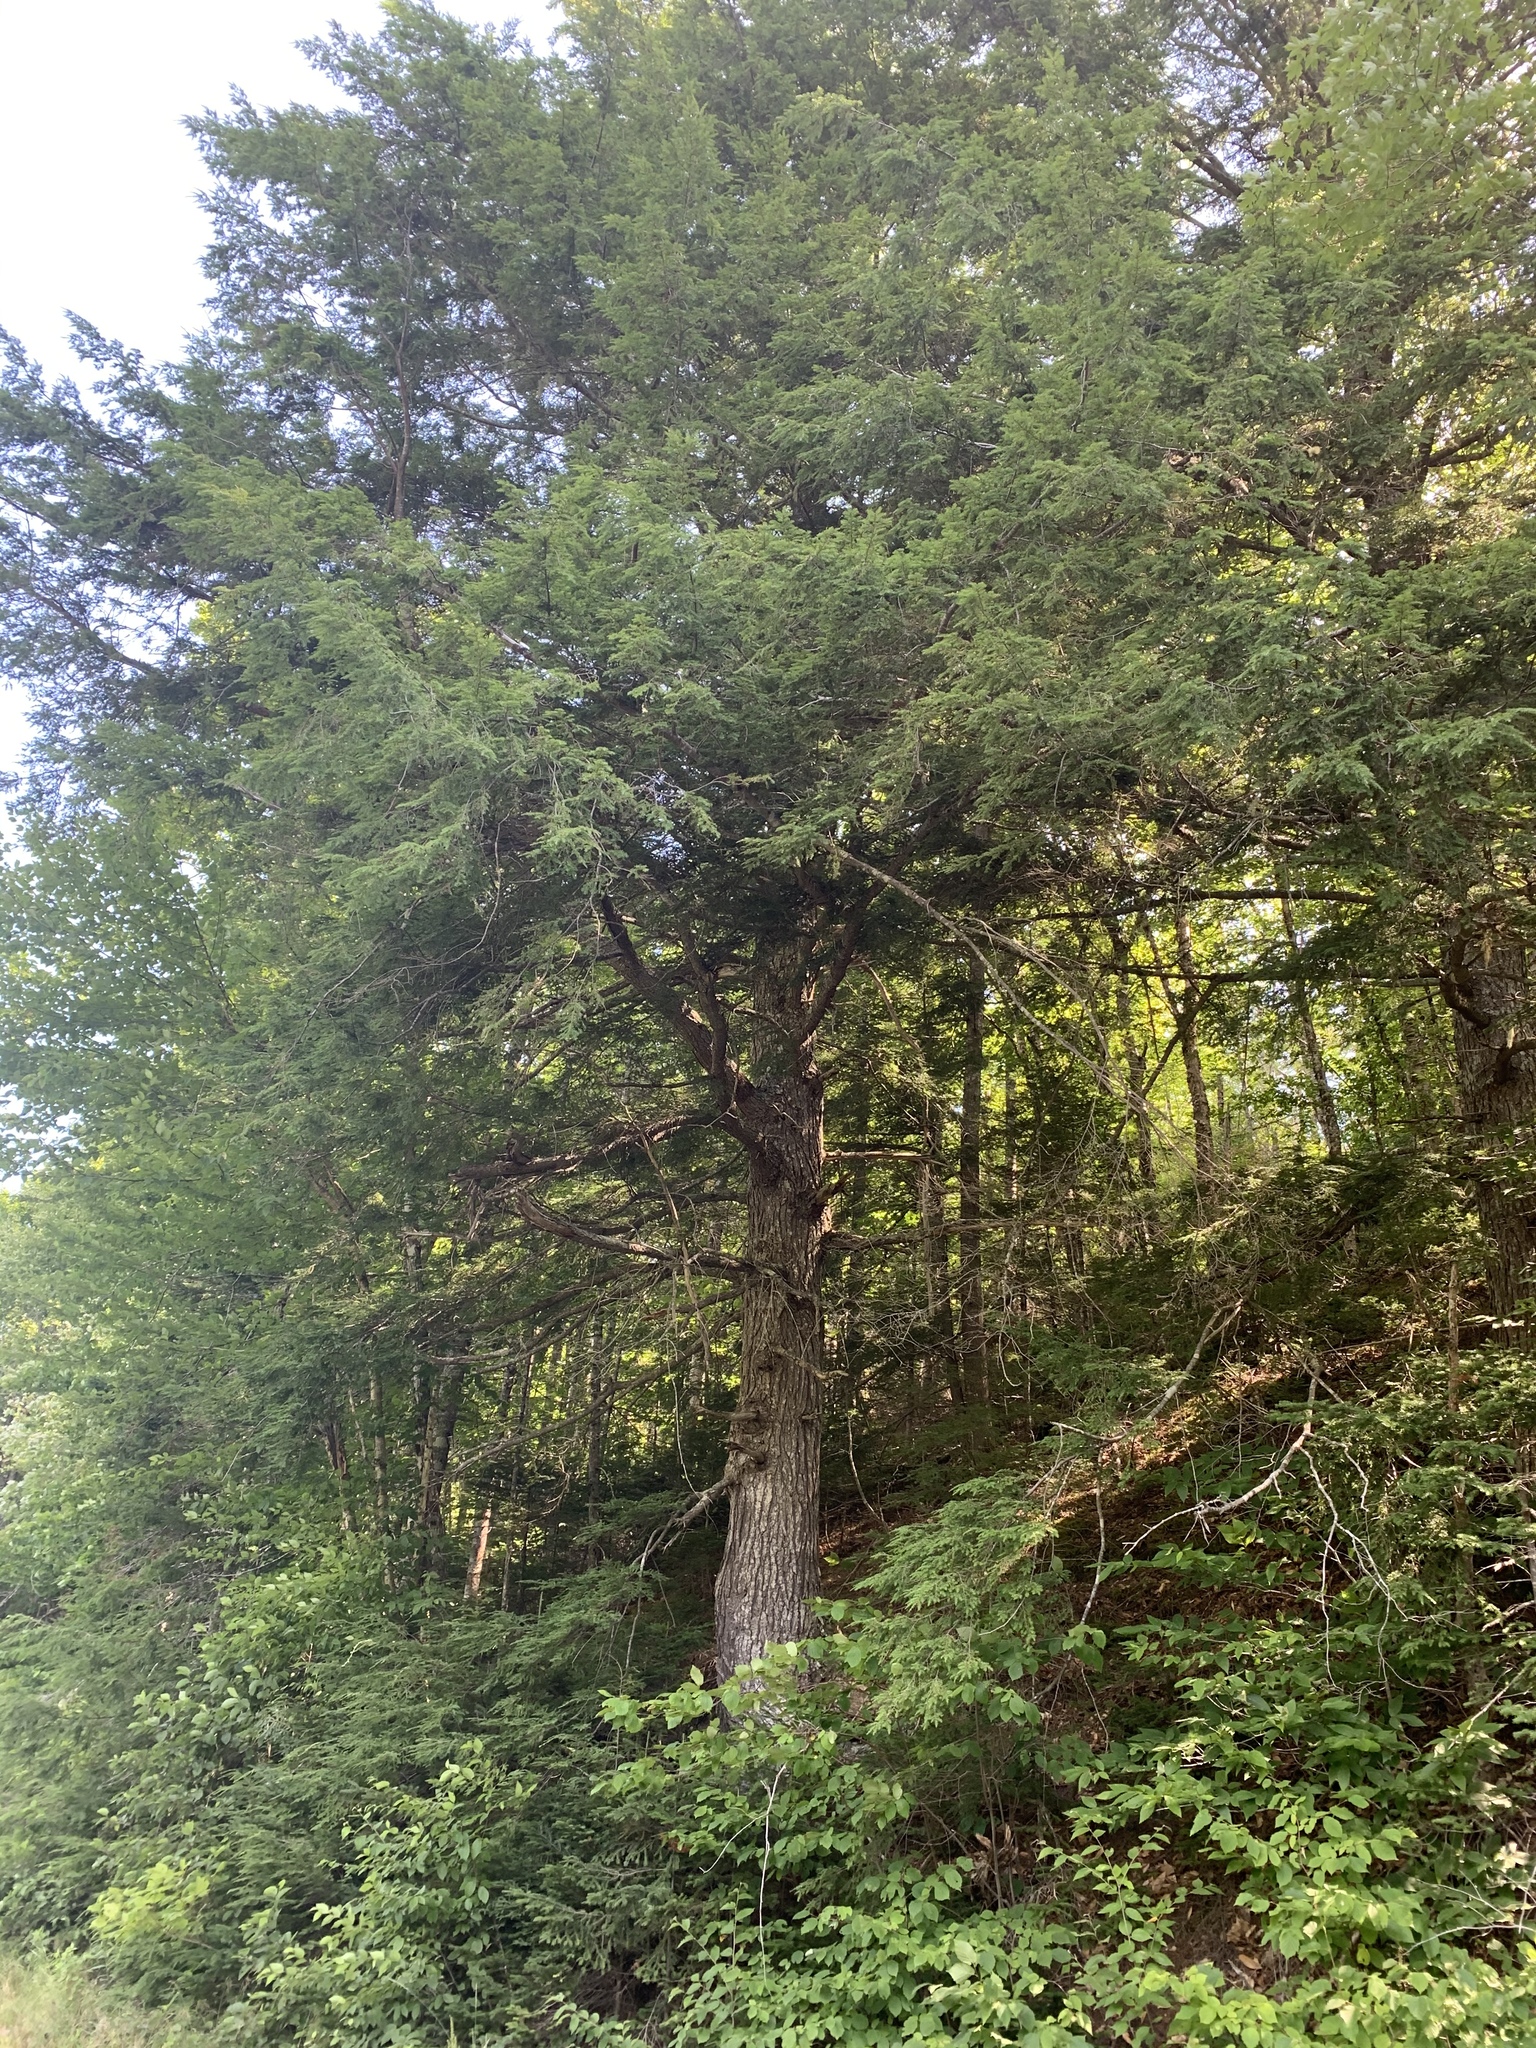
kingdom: Plantae
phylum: Tracheophyta
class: Pinopsida
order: Pinales
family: Pinaceae
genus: Tsuga
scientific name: Tsuga canadensis
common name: Eastern hemlock
